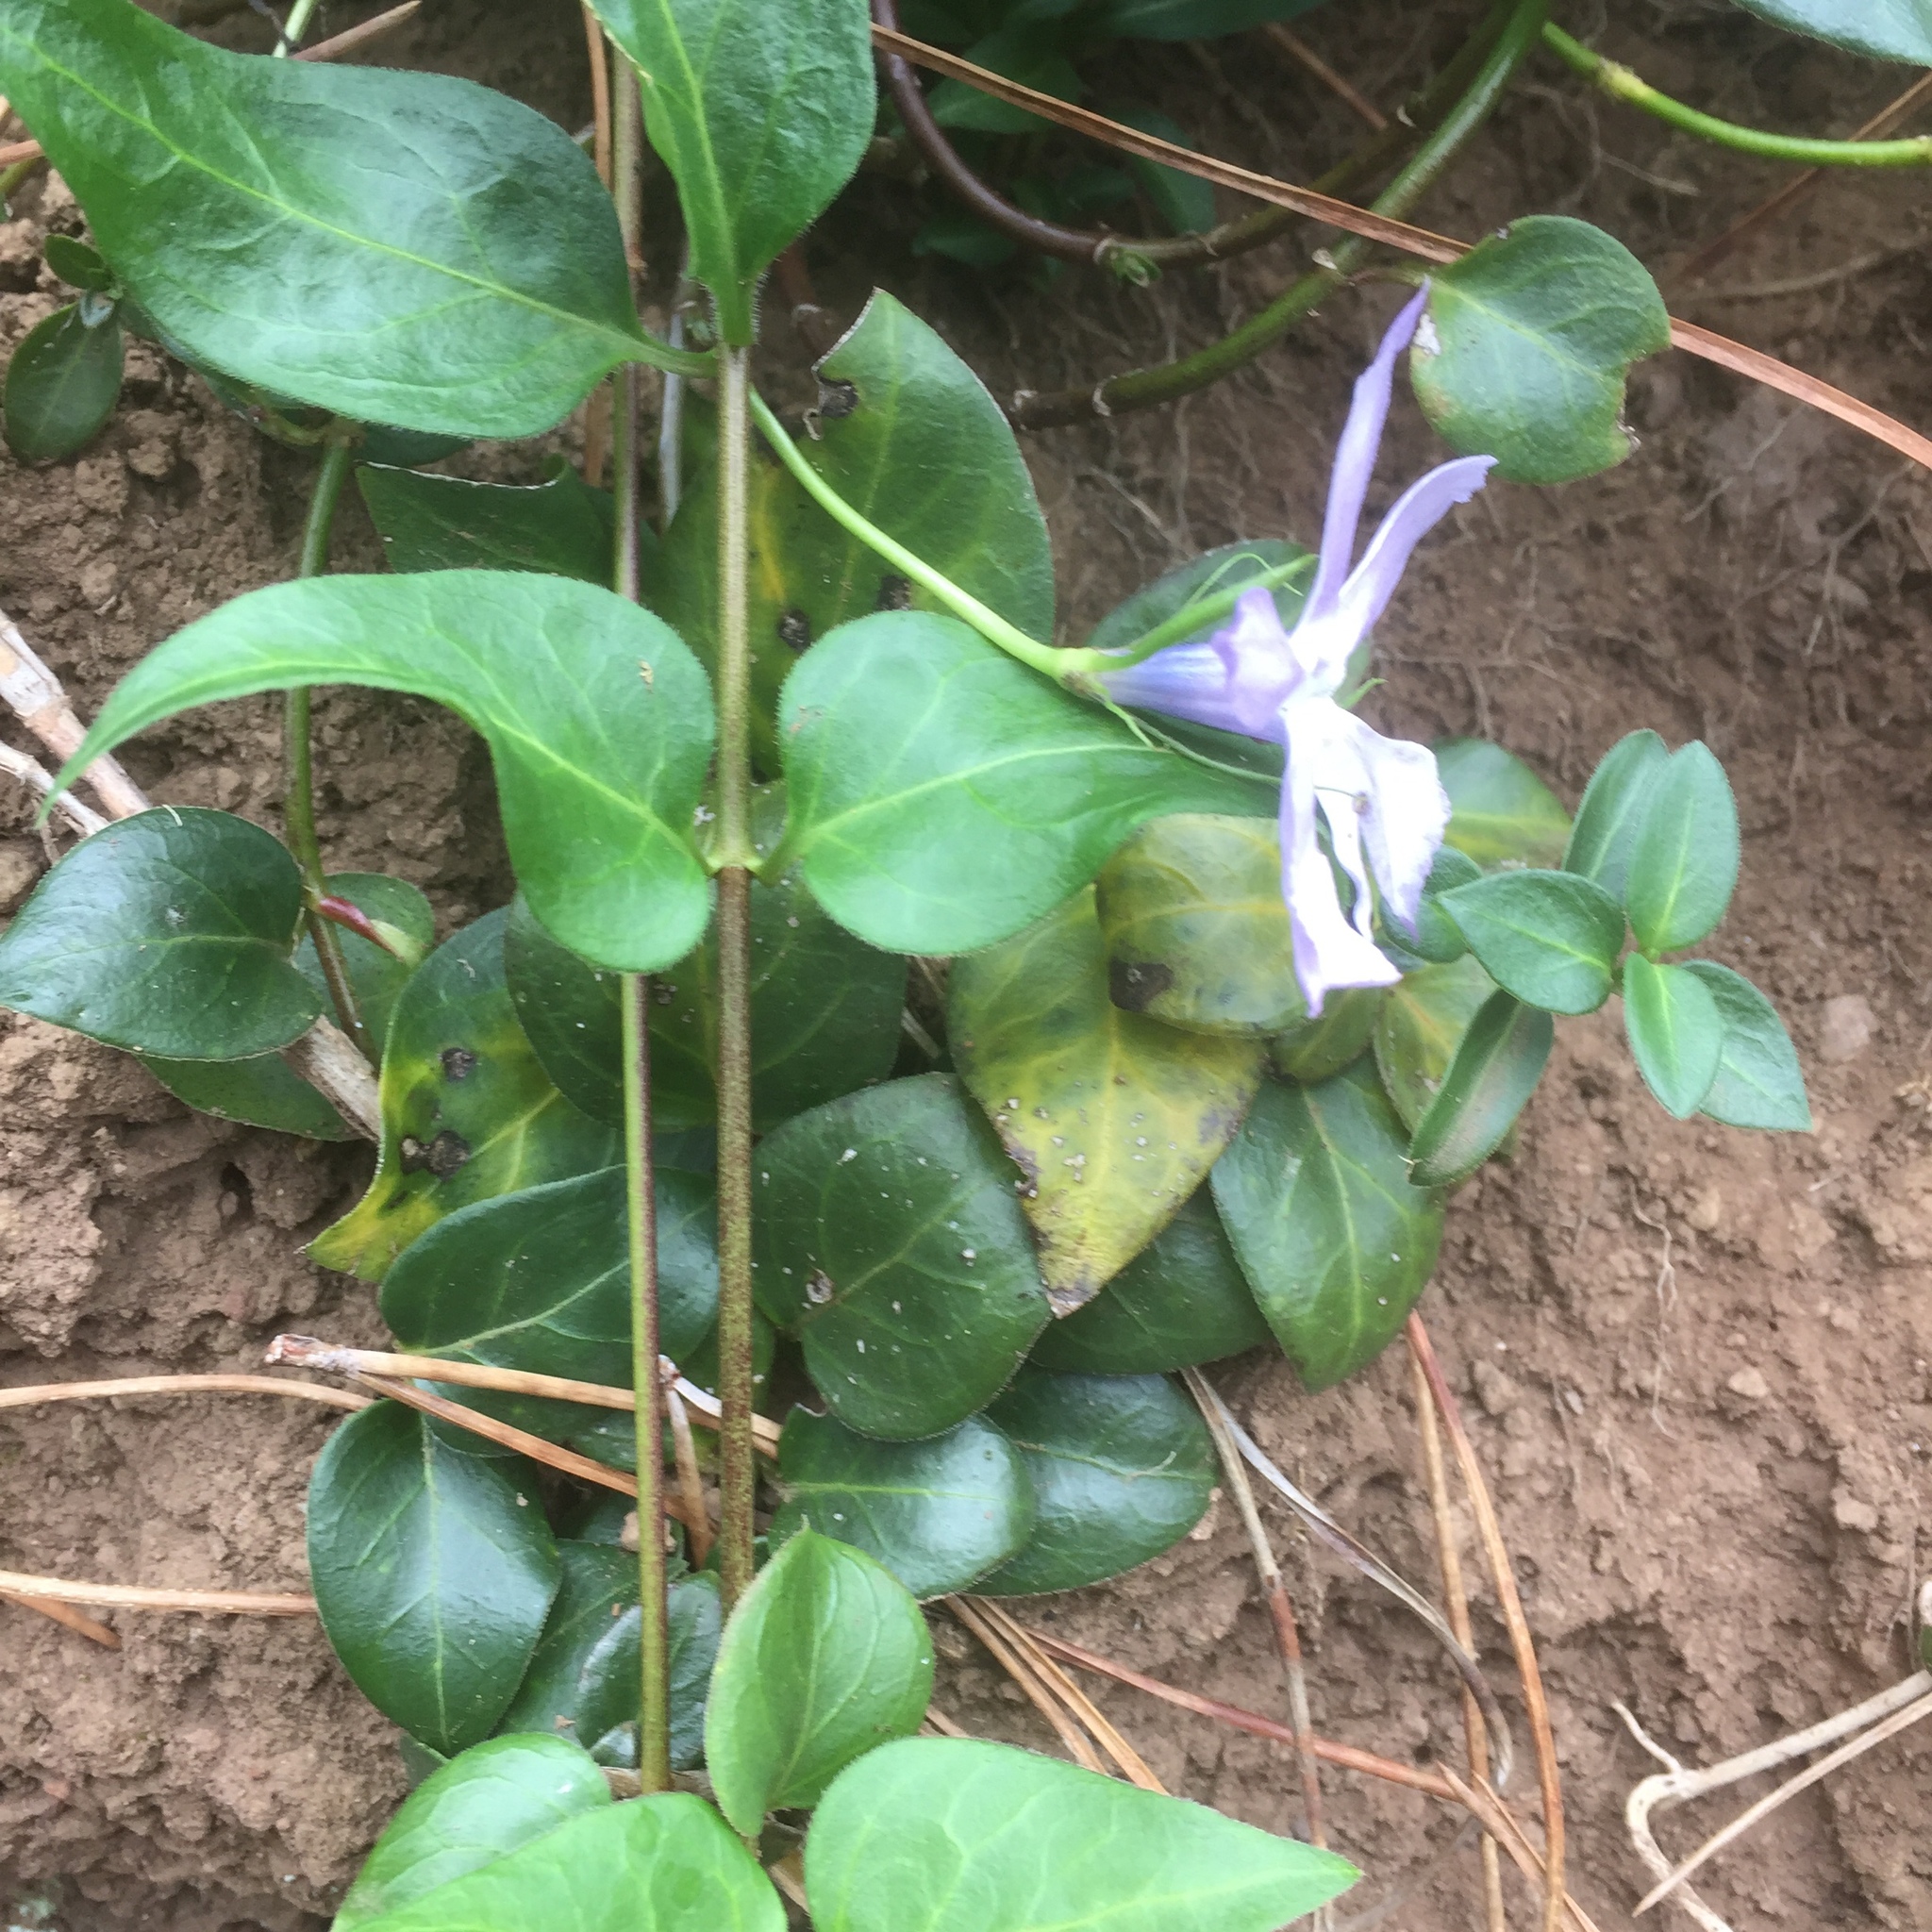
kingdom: Plantae
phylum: Tracheophyta
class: Magnoliopsida
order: Gentianales
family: Apocynaceae
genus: Vinca
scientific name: Vinca major
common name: Greater periwinkle
